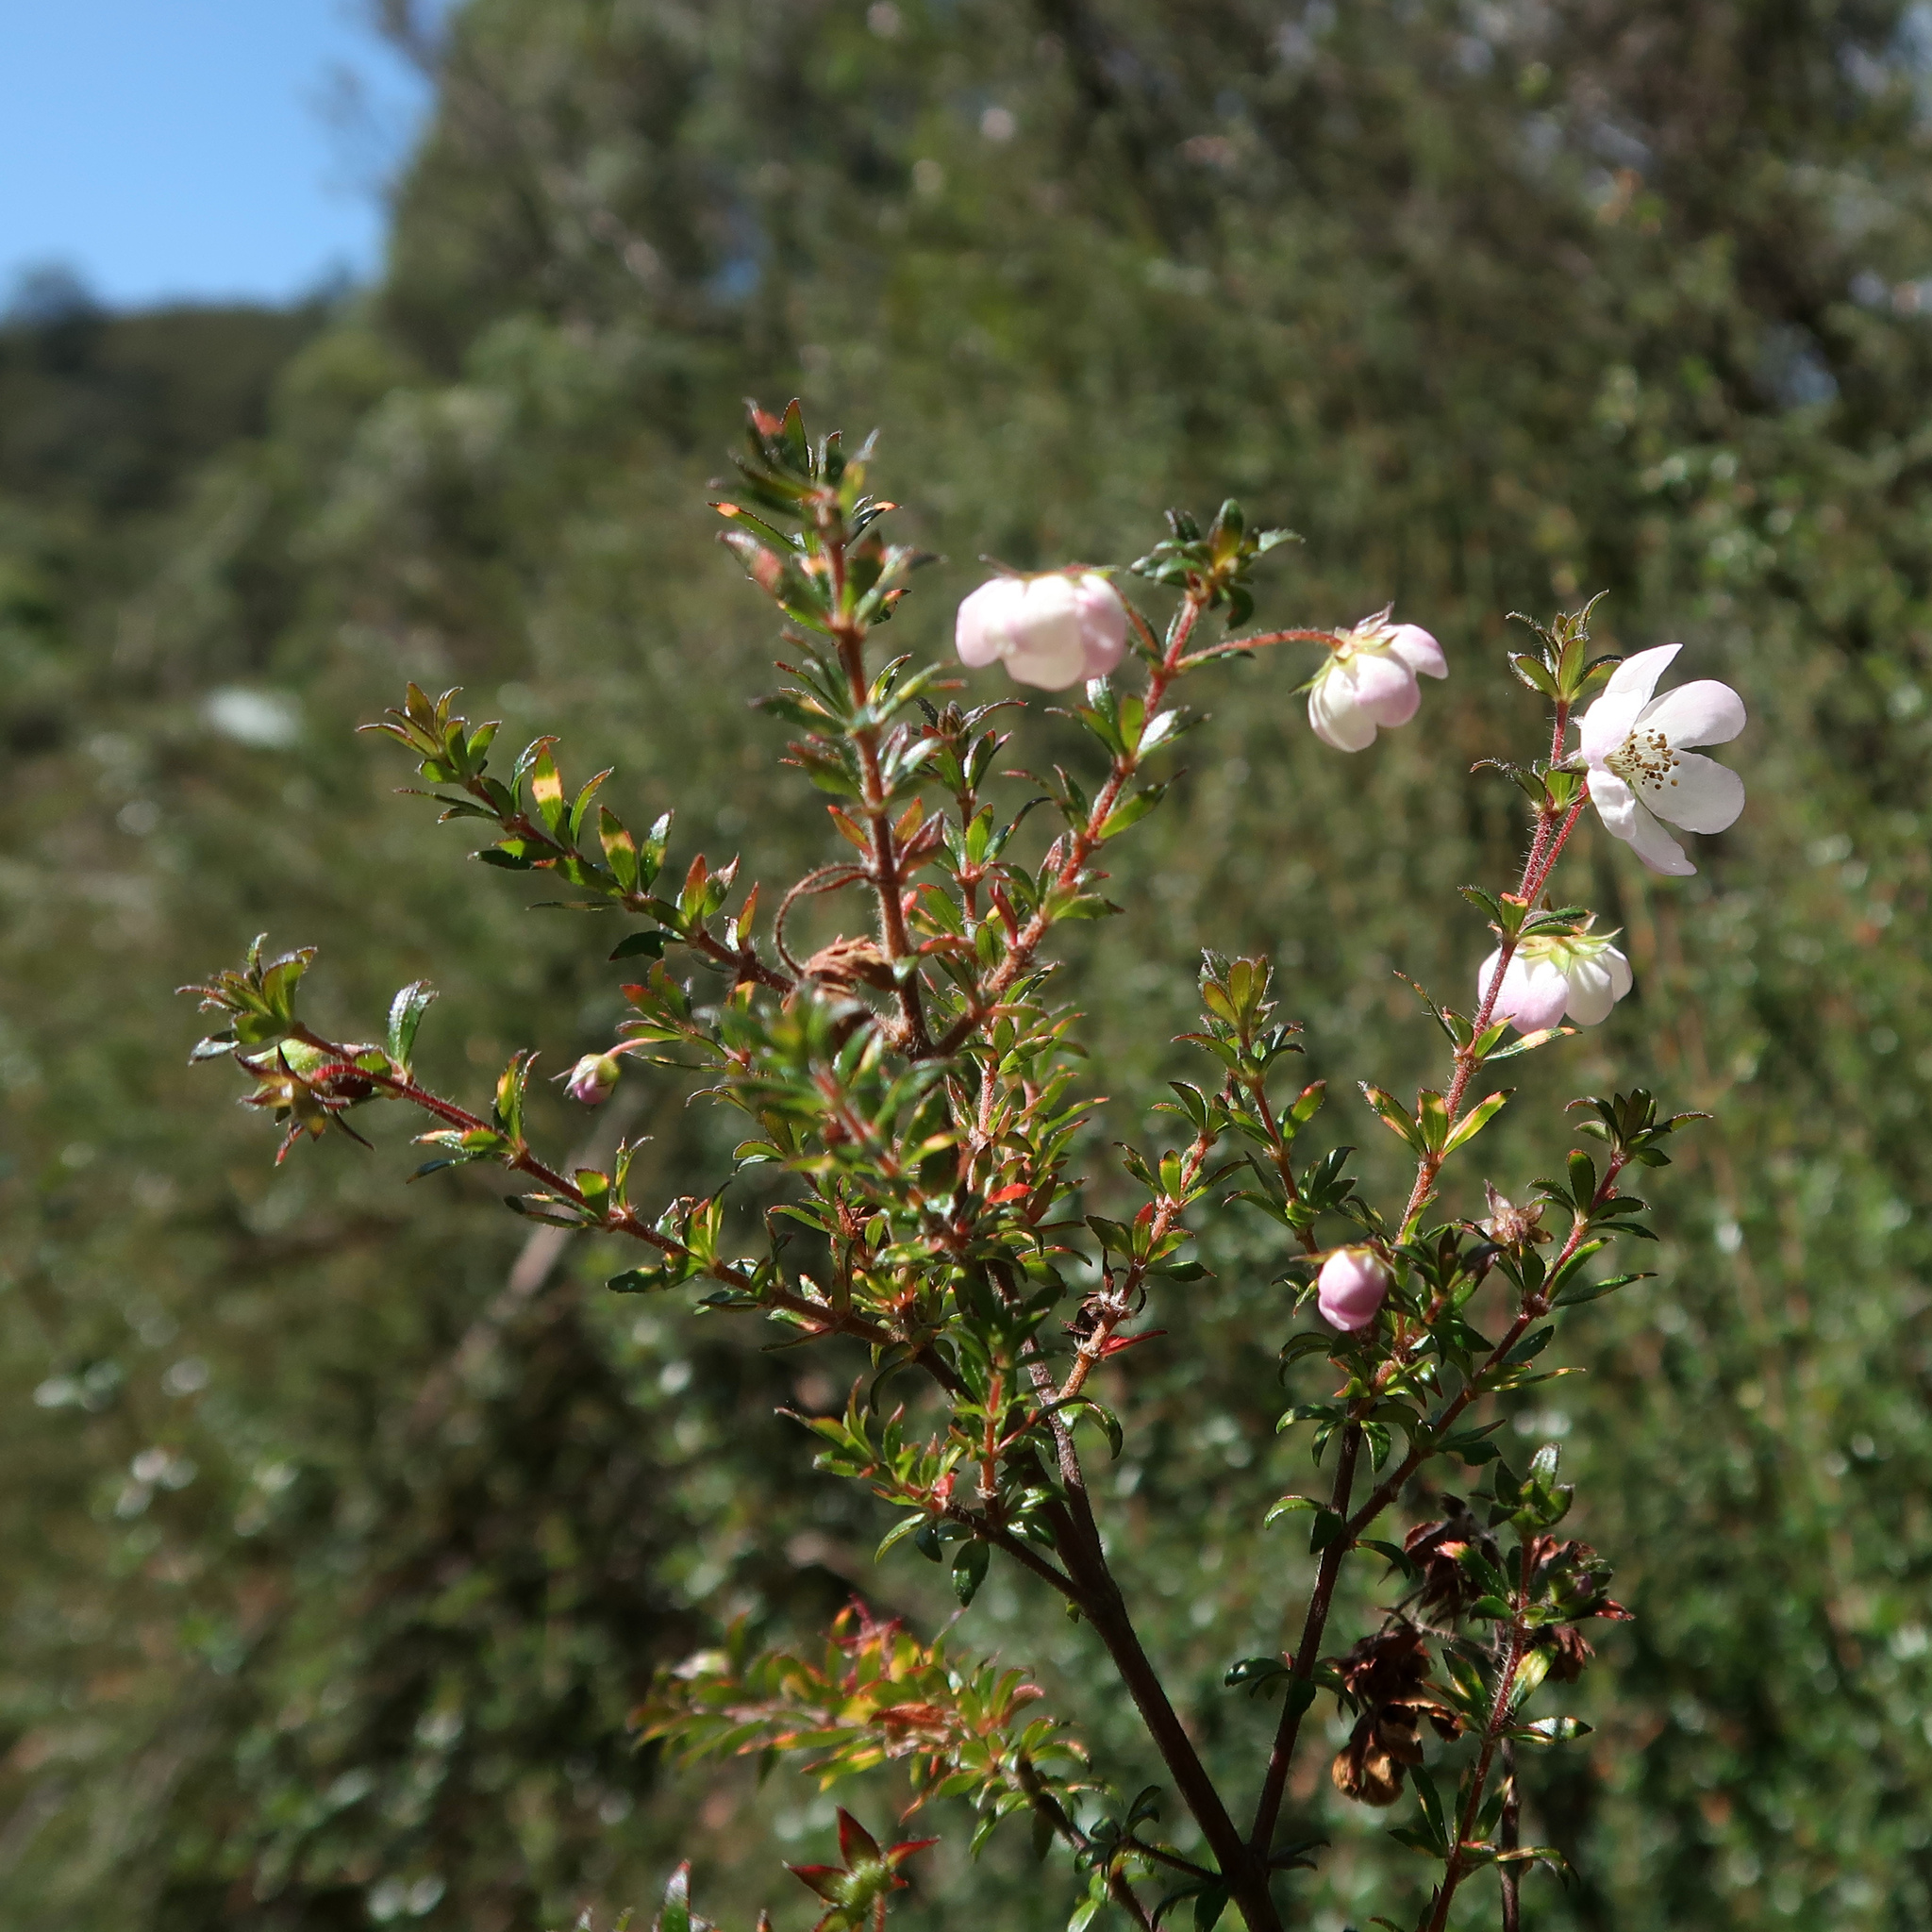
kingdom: Plantae
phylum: Tracheophyta
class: Magnoliopsida
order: Oxalidales
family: Cunoniaceae
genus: Bauera
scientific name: Bauera rubioides
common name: River-rose
